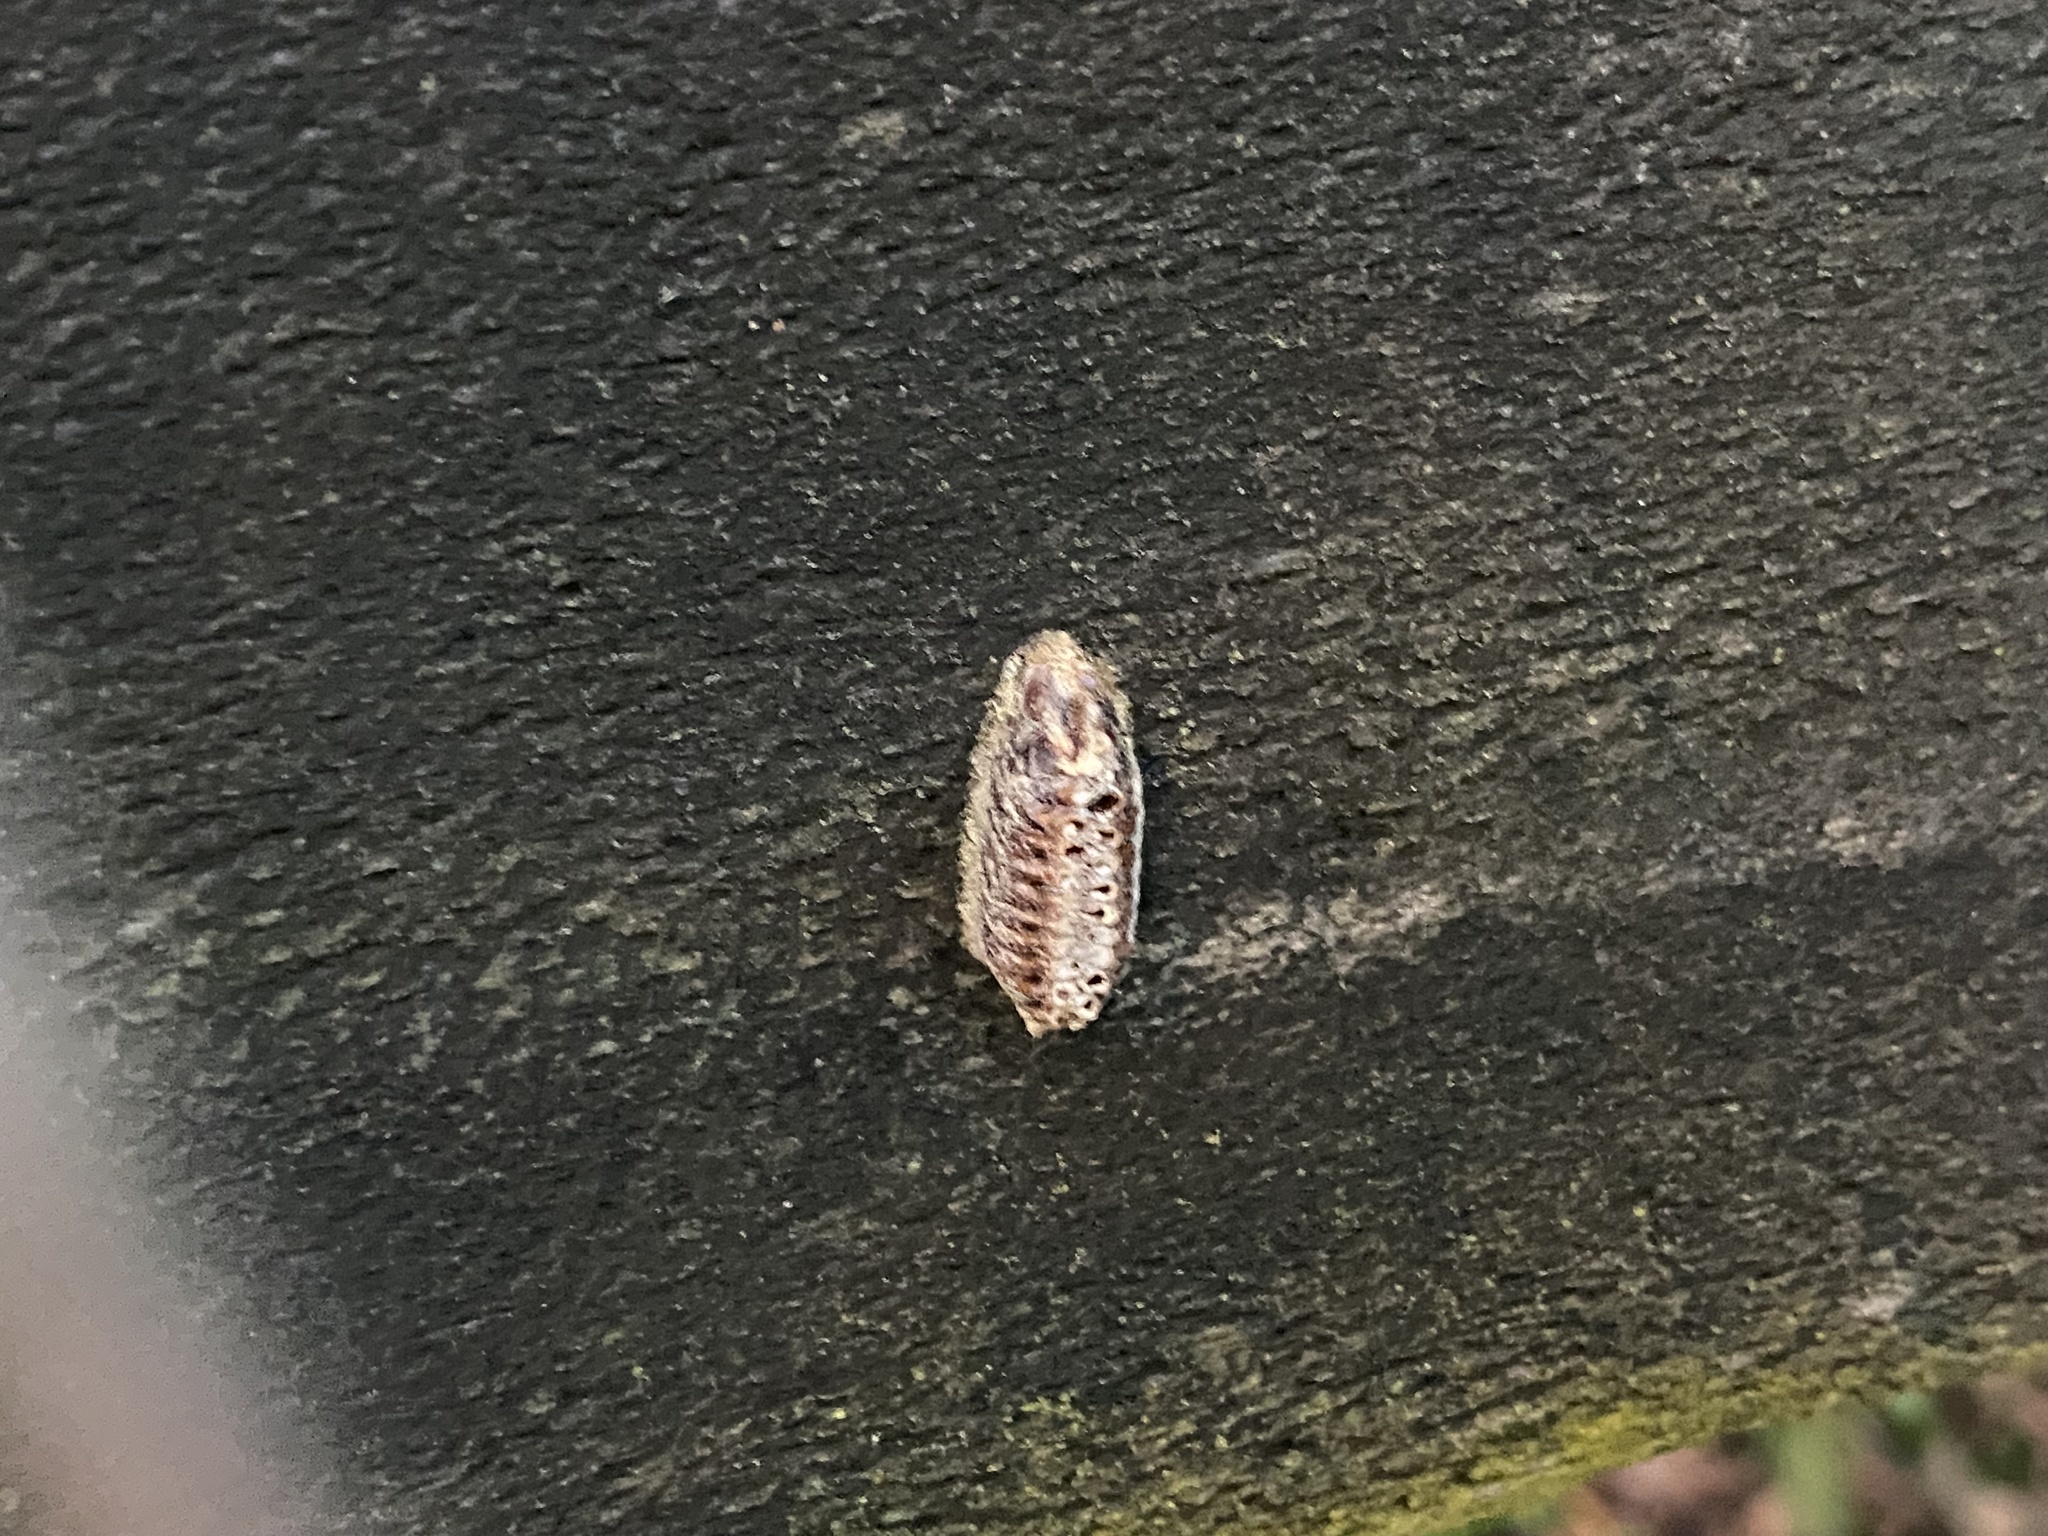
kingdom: Animalia
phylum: Arthropoda
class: Insecta
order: Mantodea
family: Mantidae
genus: Orthodera
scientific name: Orthodera novaezealandiae
